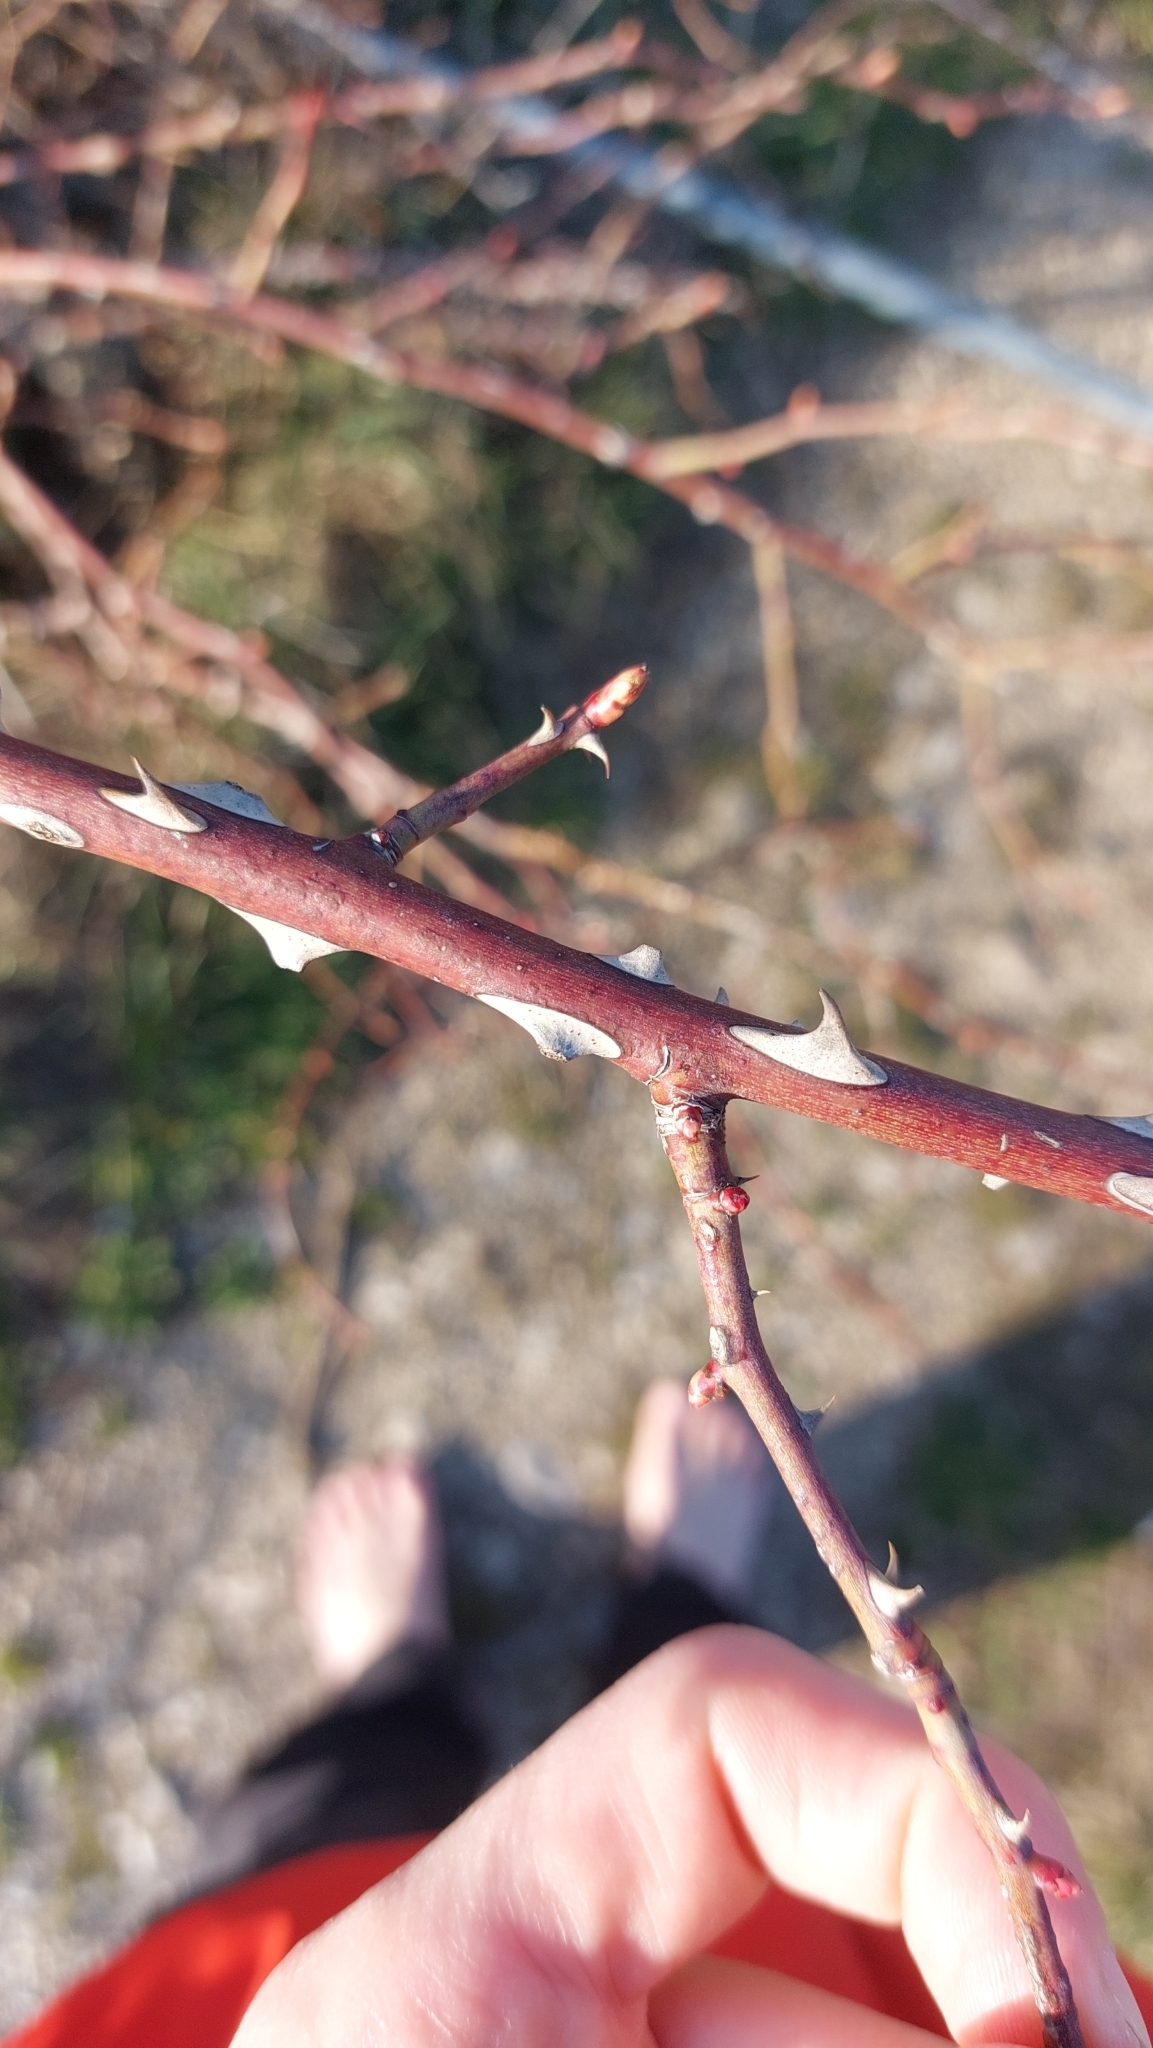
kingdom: Plantae
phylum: Tracheophyta
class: Magnoliopsida
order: Rosales
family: Rosaceae
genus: Rosa
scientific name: Rosa
